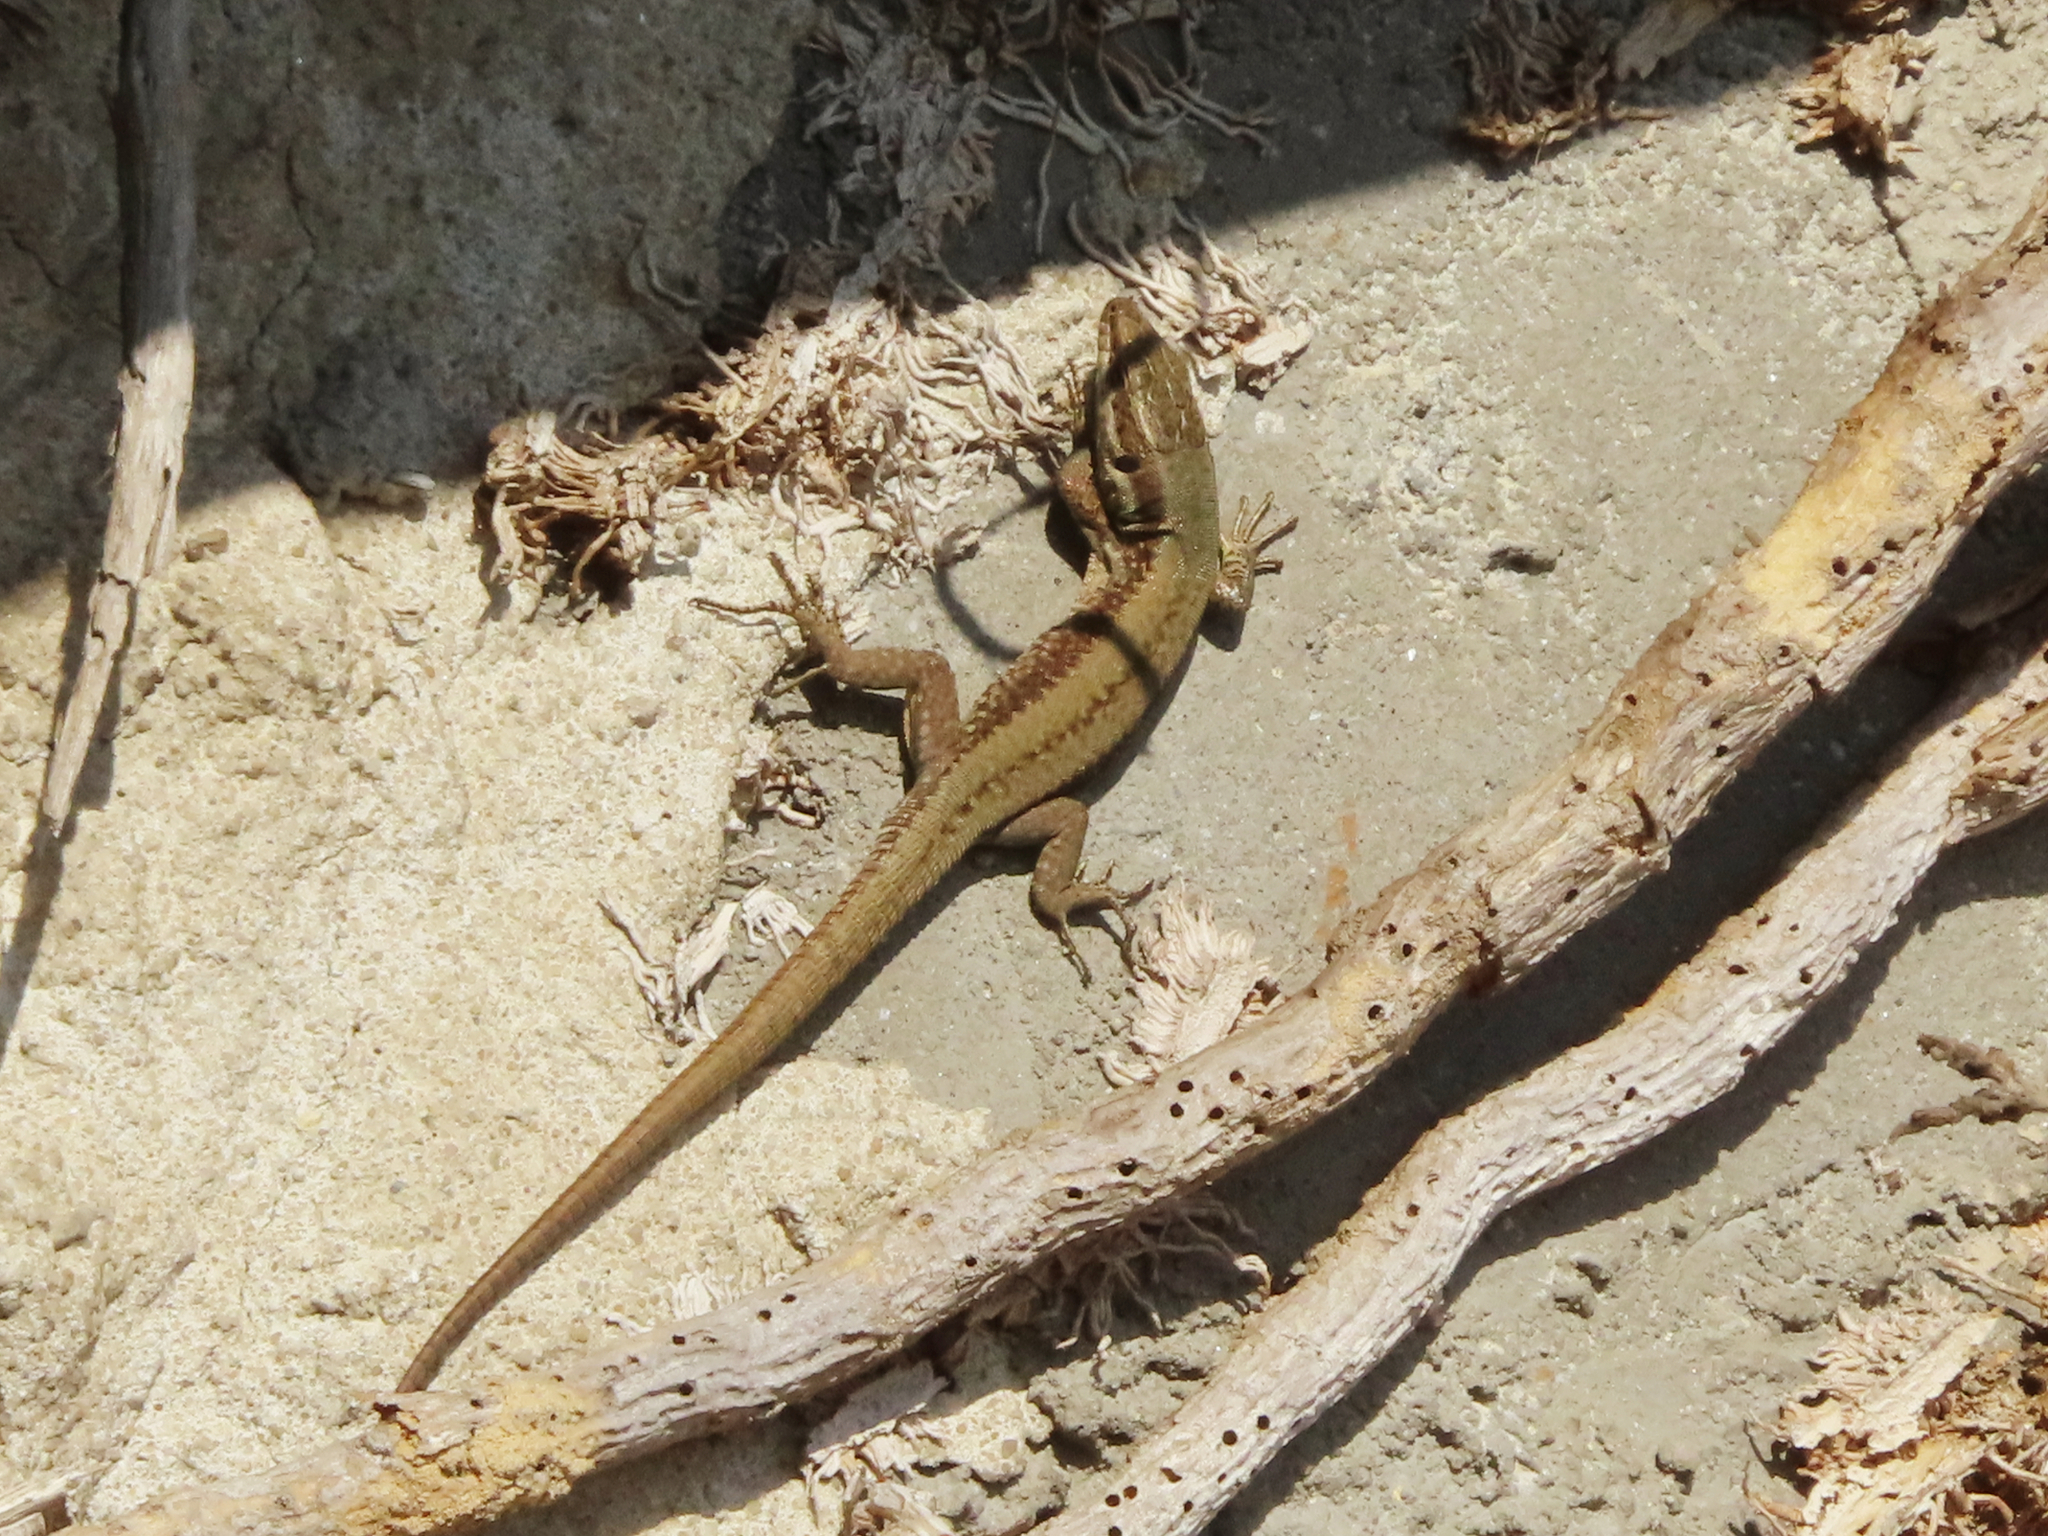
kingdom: Animalia
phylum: Chordata
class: Squamata
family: Lacertidae
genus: Podarcis
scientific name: Podarcis muralis
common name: Common wall lizard
